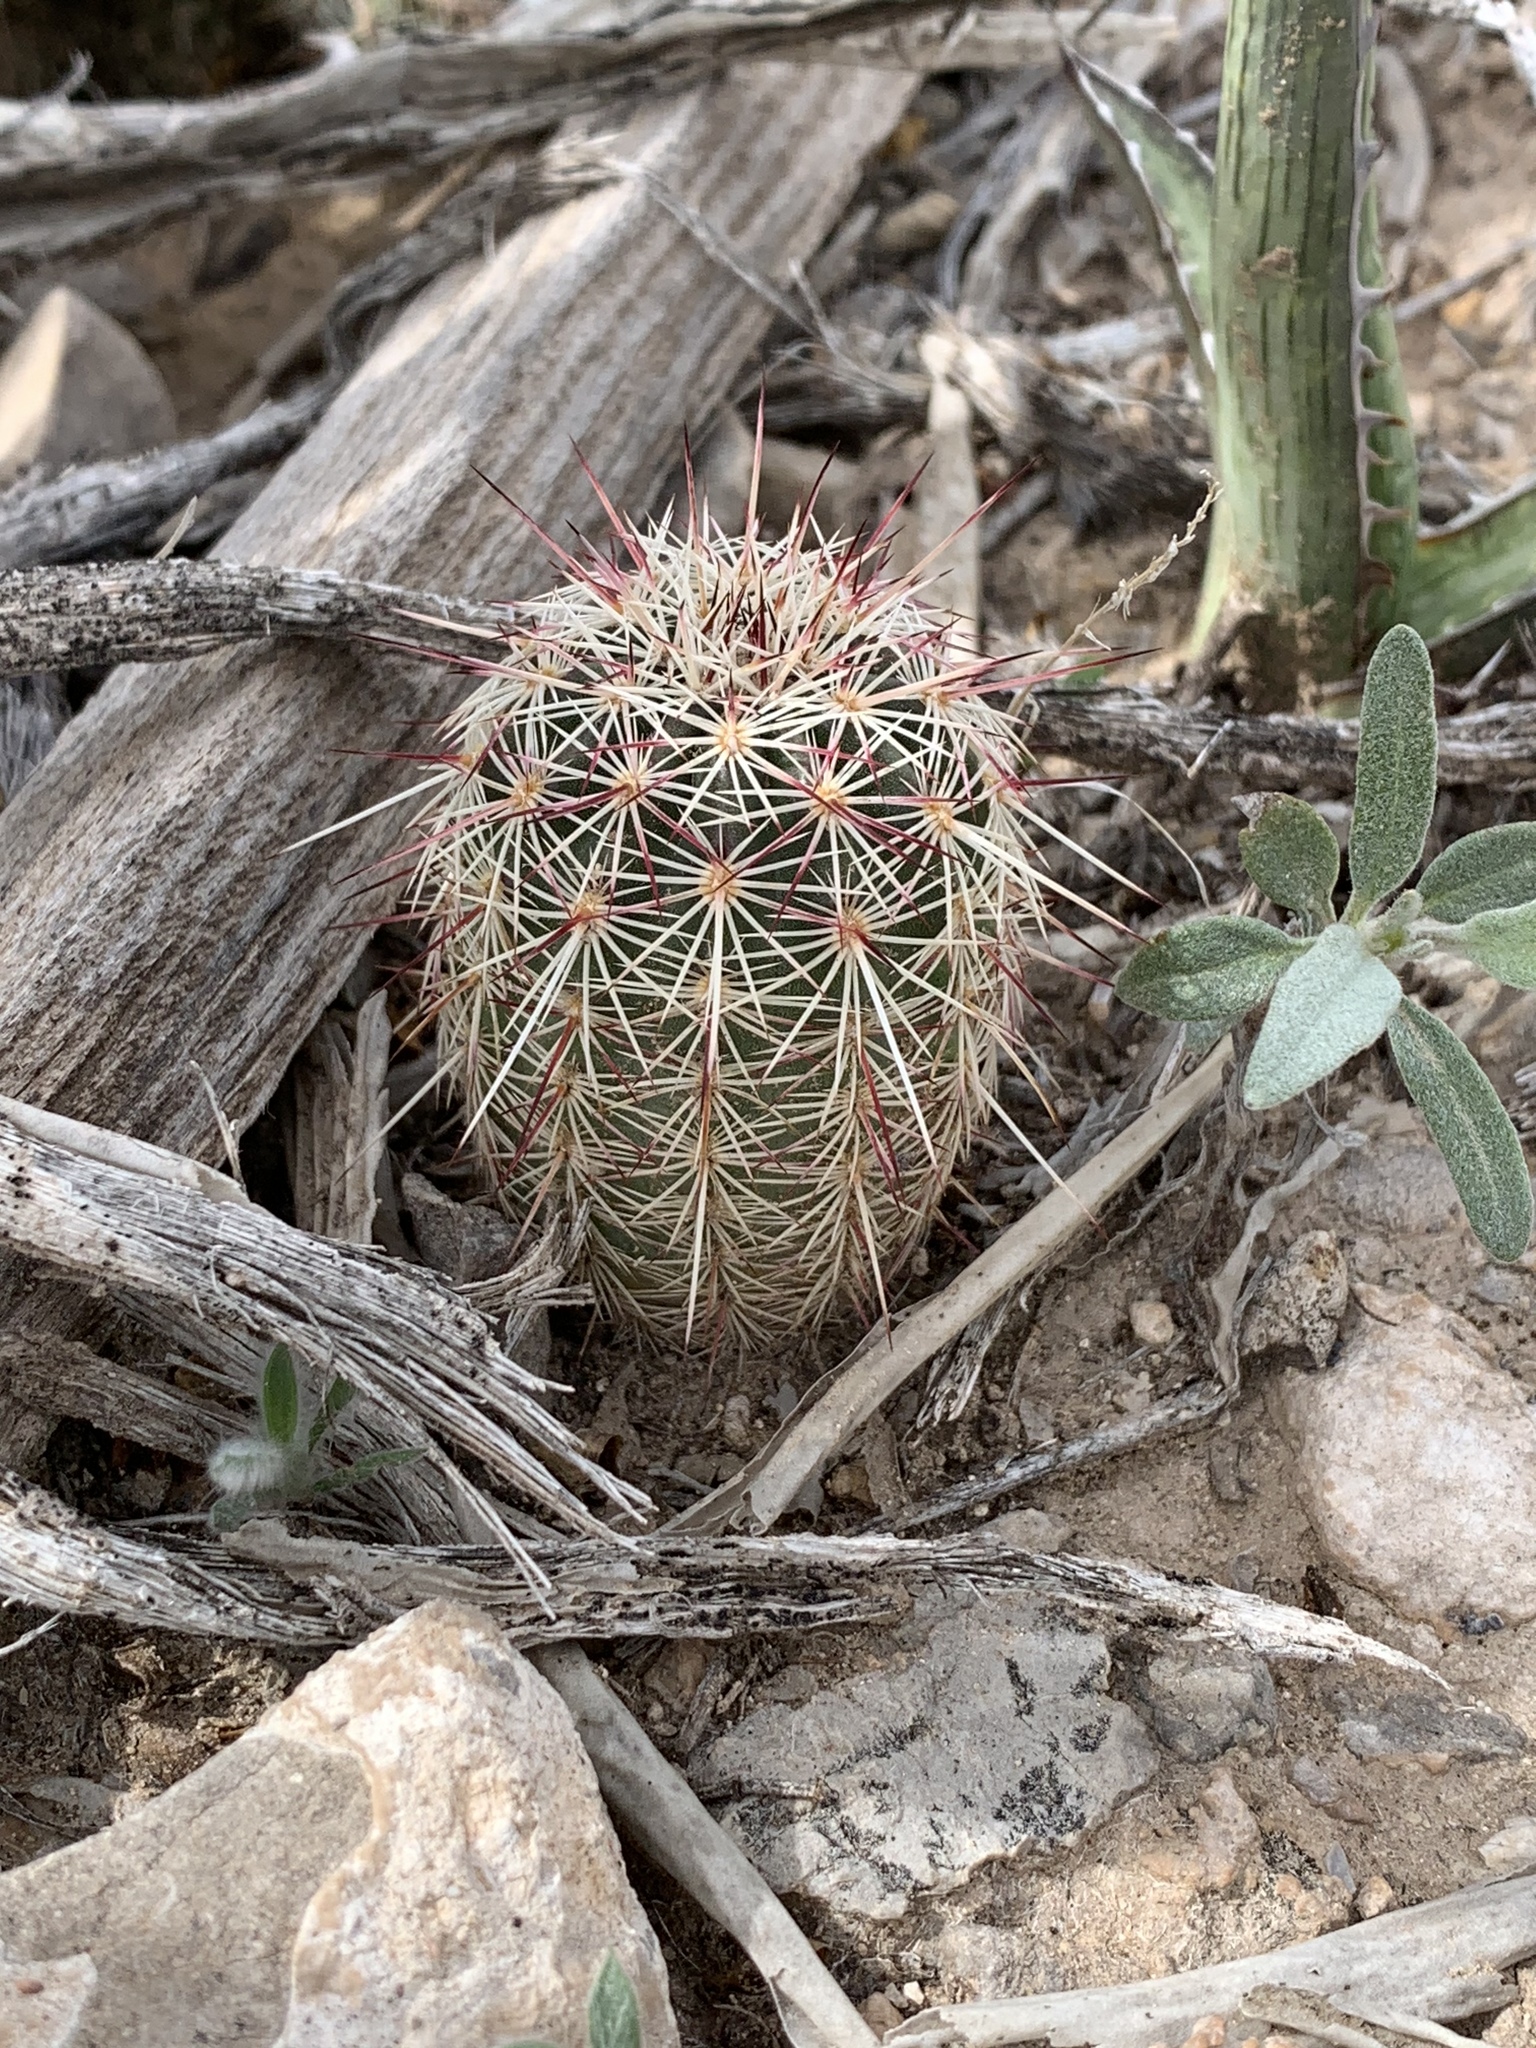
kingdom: Plantae
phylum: Tracheophyta
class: Magnoliopsida
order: Caryophyllales
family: Cactaceae
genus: Echinocereus
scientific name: Echinocereus viridiflorus
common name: Nylon hedgehog cactus
